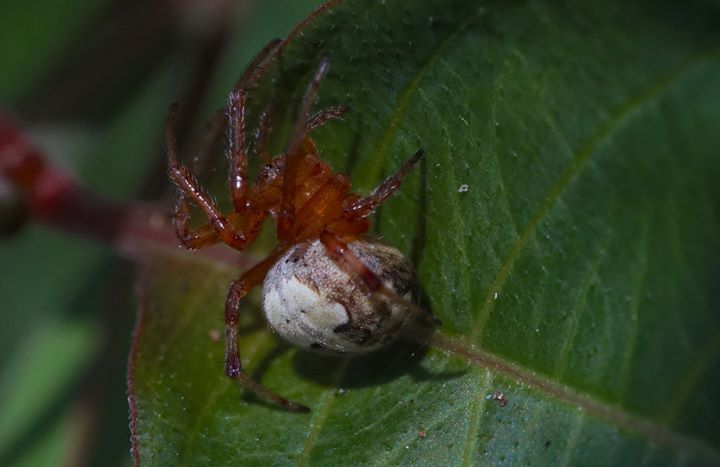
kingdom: Animalia
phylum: Arthropoda
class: Arachnida
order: Araneae
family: Araneidae
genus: Araneus
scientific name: Araneus pegnia
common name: Orb weavers
